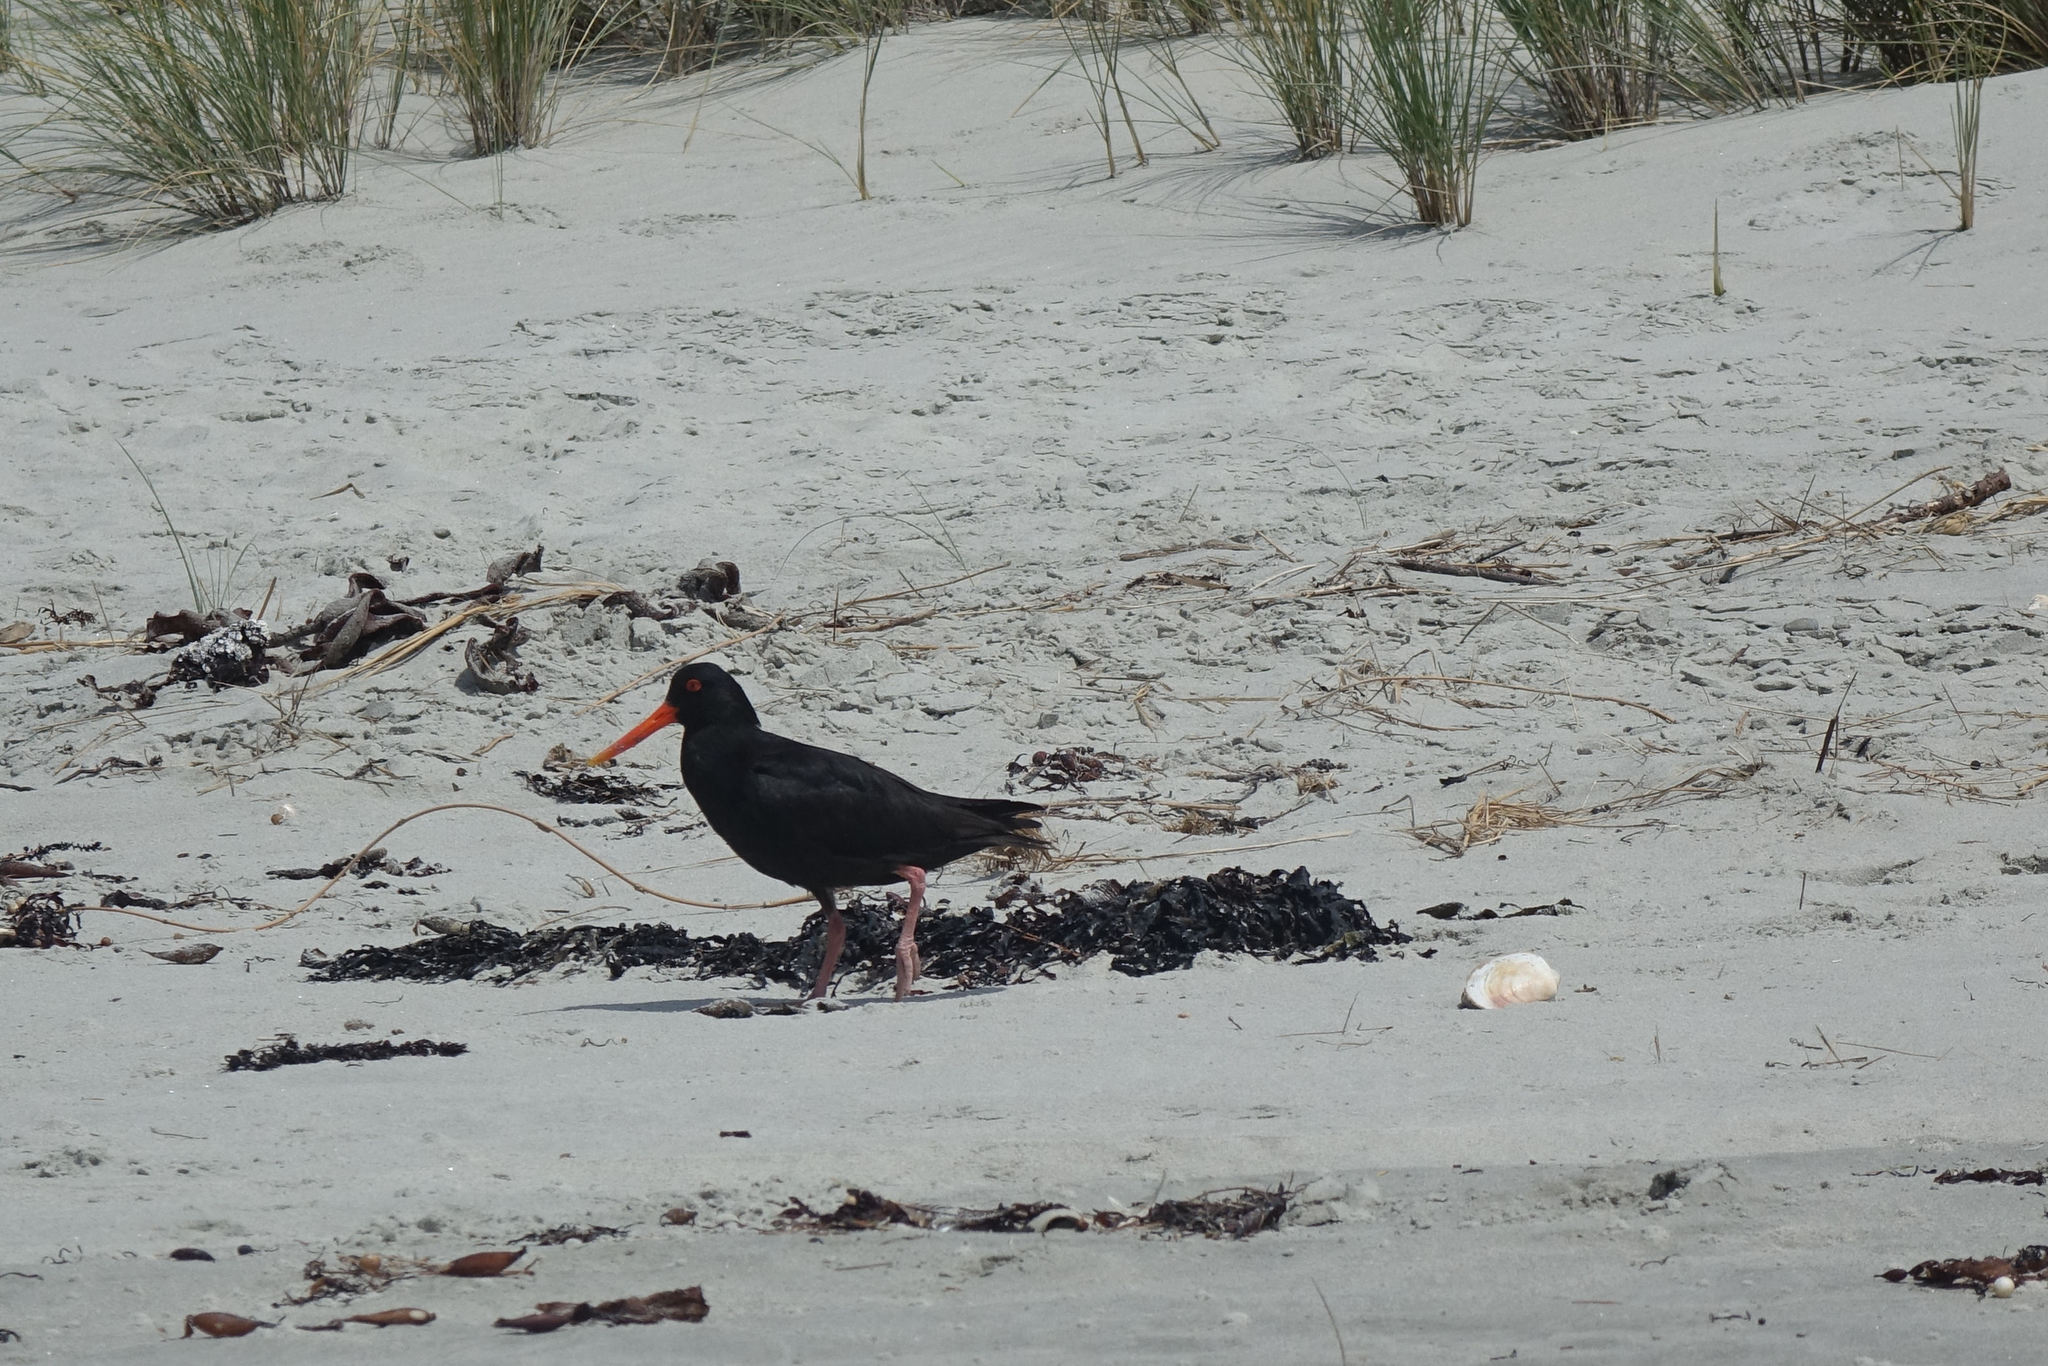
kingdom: Animalia
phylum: Chordata
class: Aves
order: Charadriiformes
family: Haematopodidae
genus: Haematopus
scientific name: Haematopus unicolor
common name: Variable oystercatcher
